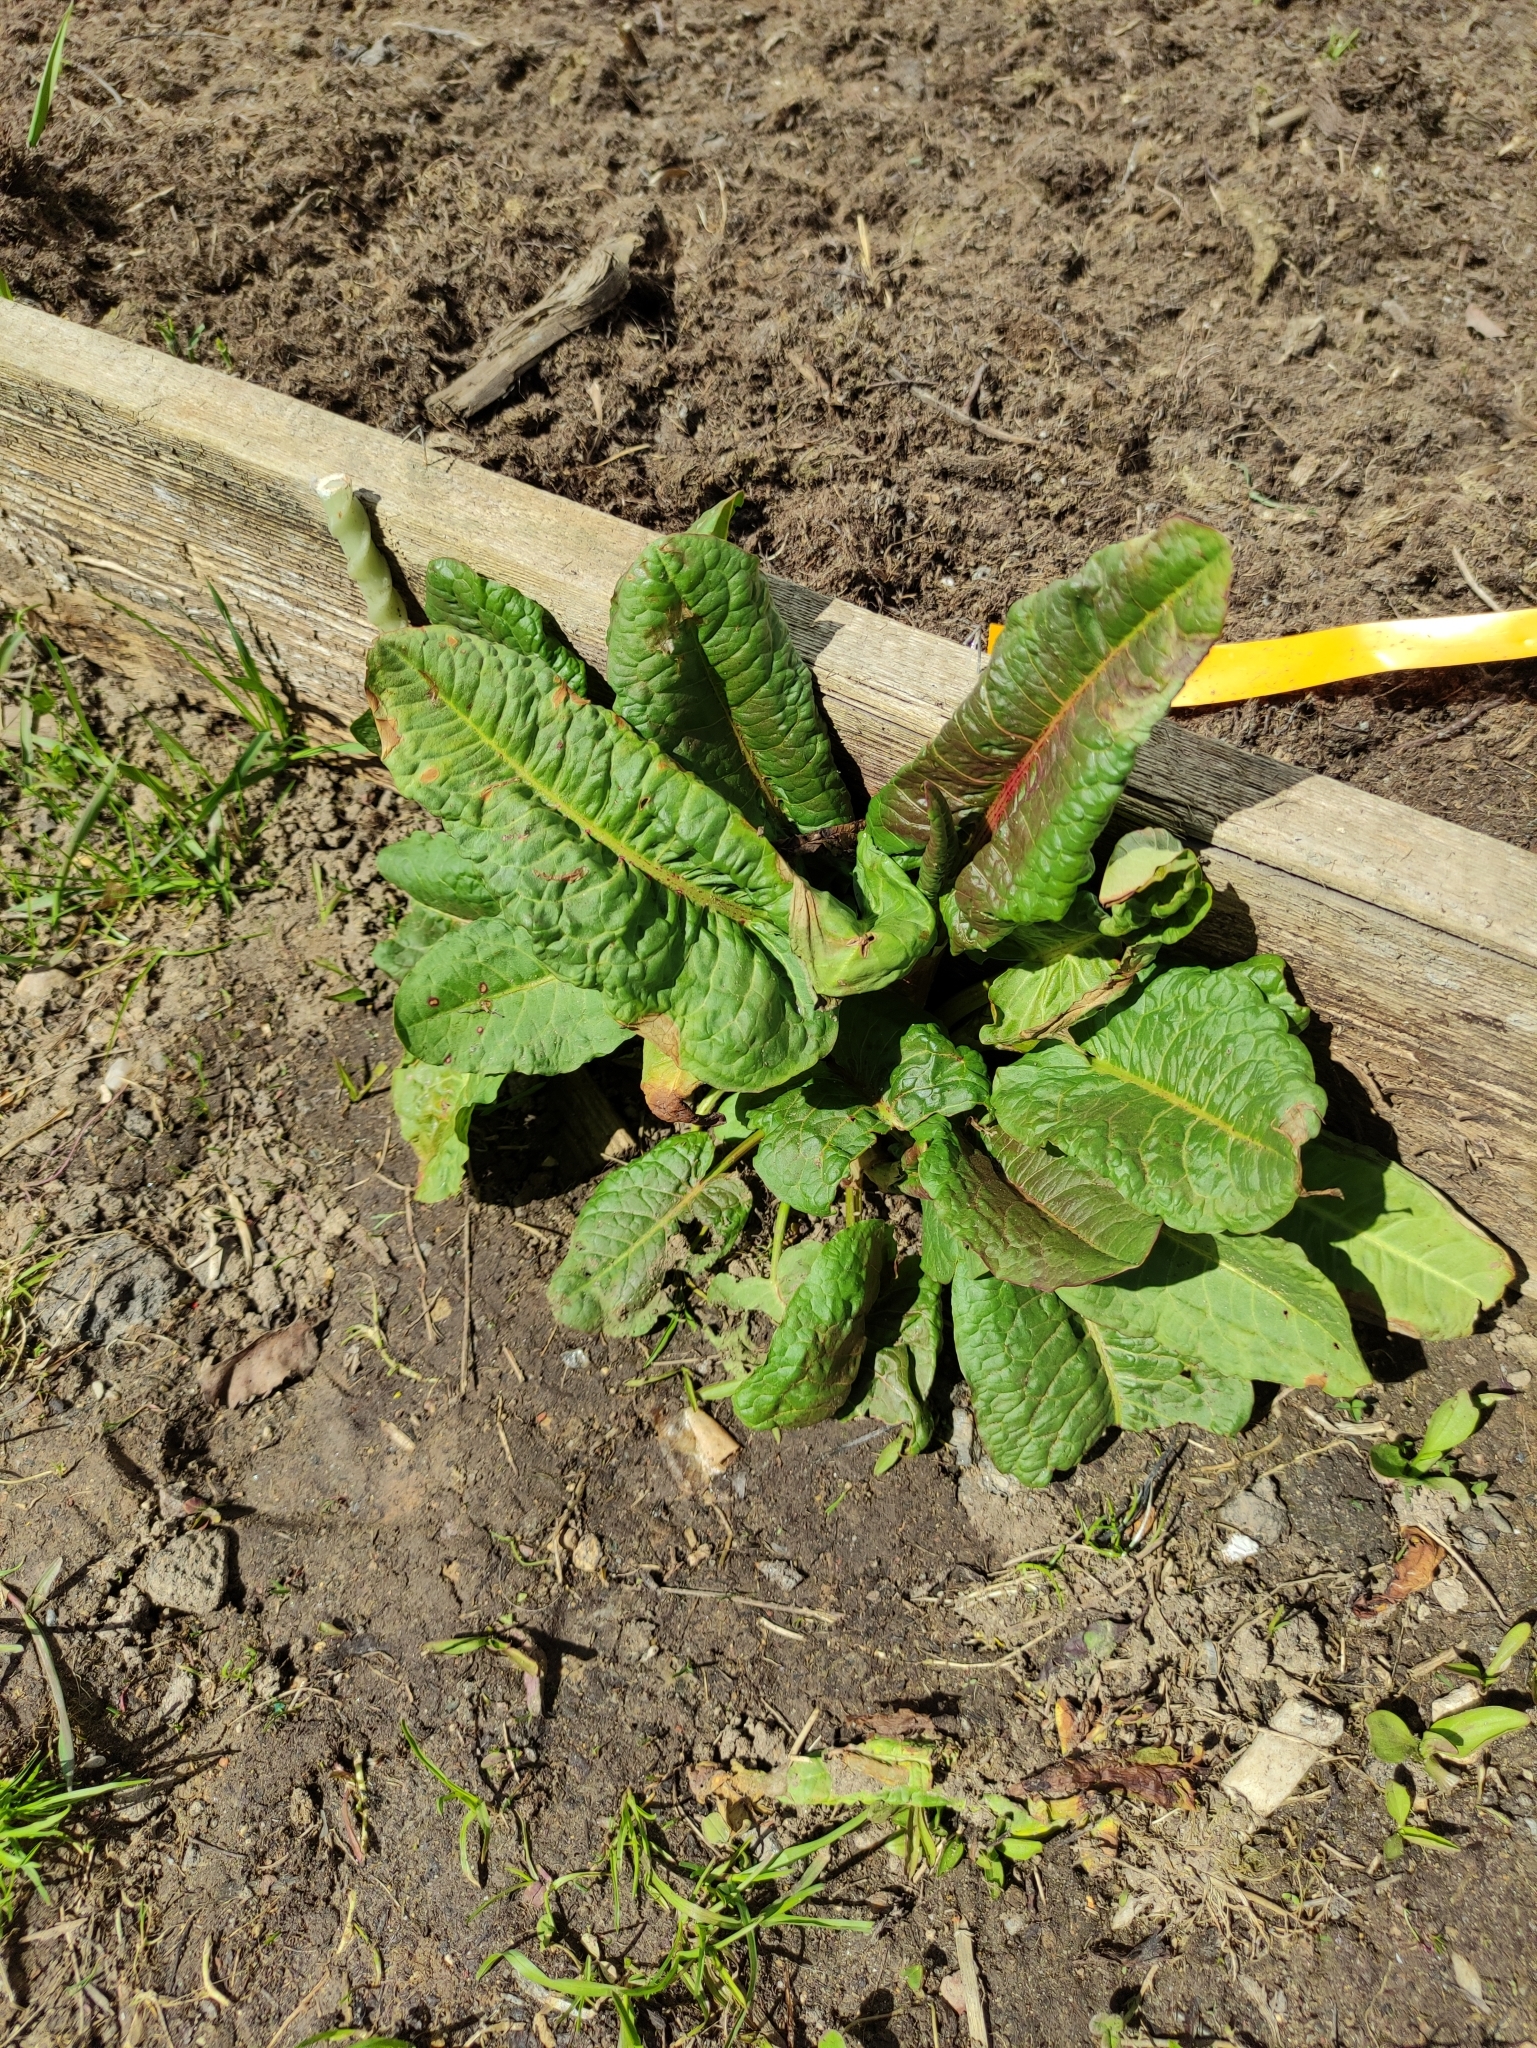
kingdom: Plantae
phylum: Tracheophyta
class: Magnoliopsida
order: Caryophyllales
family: Polygonaceae
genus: Rumex
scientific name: Rumex obtusifolius
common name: Bitter dock
